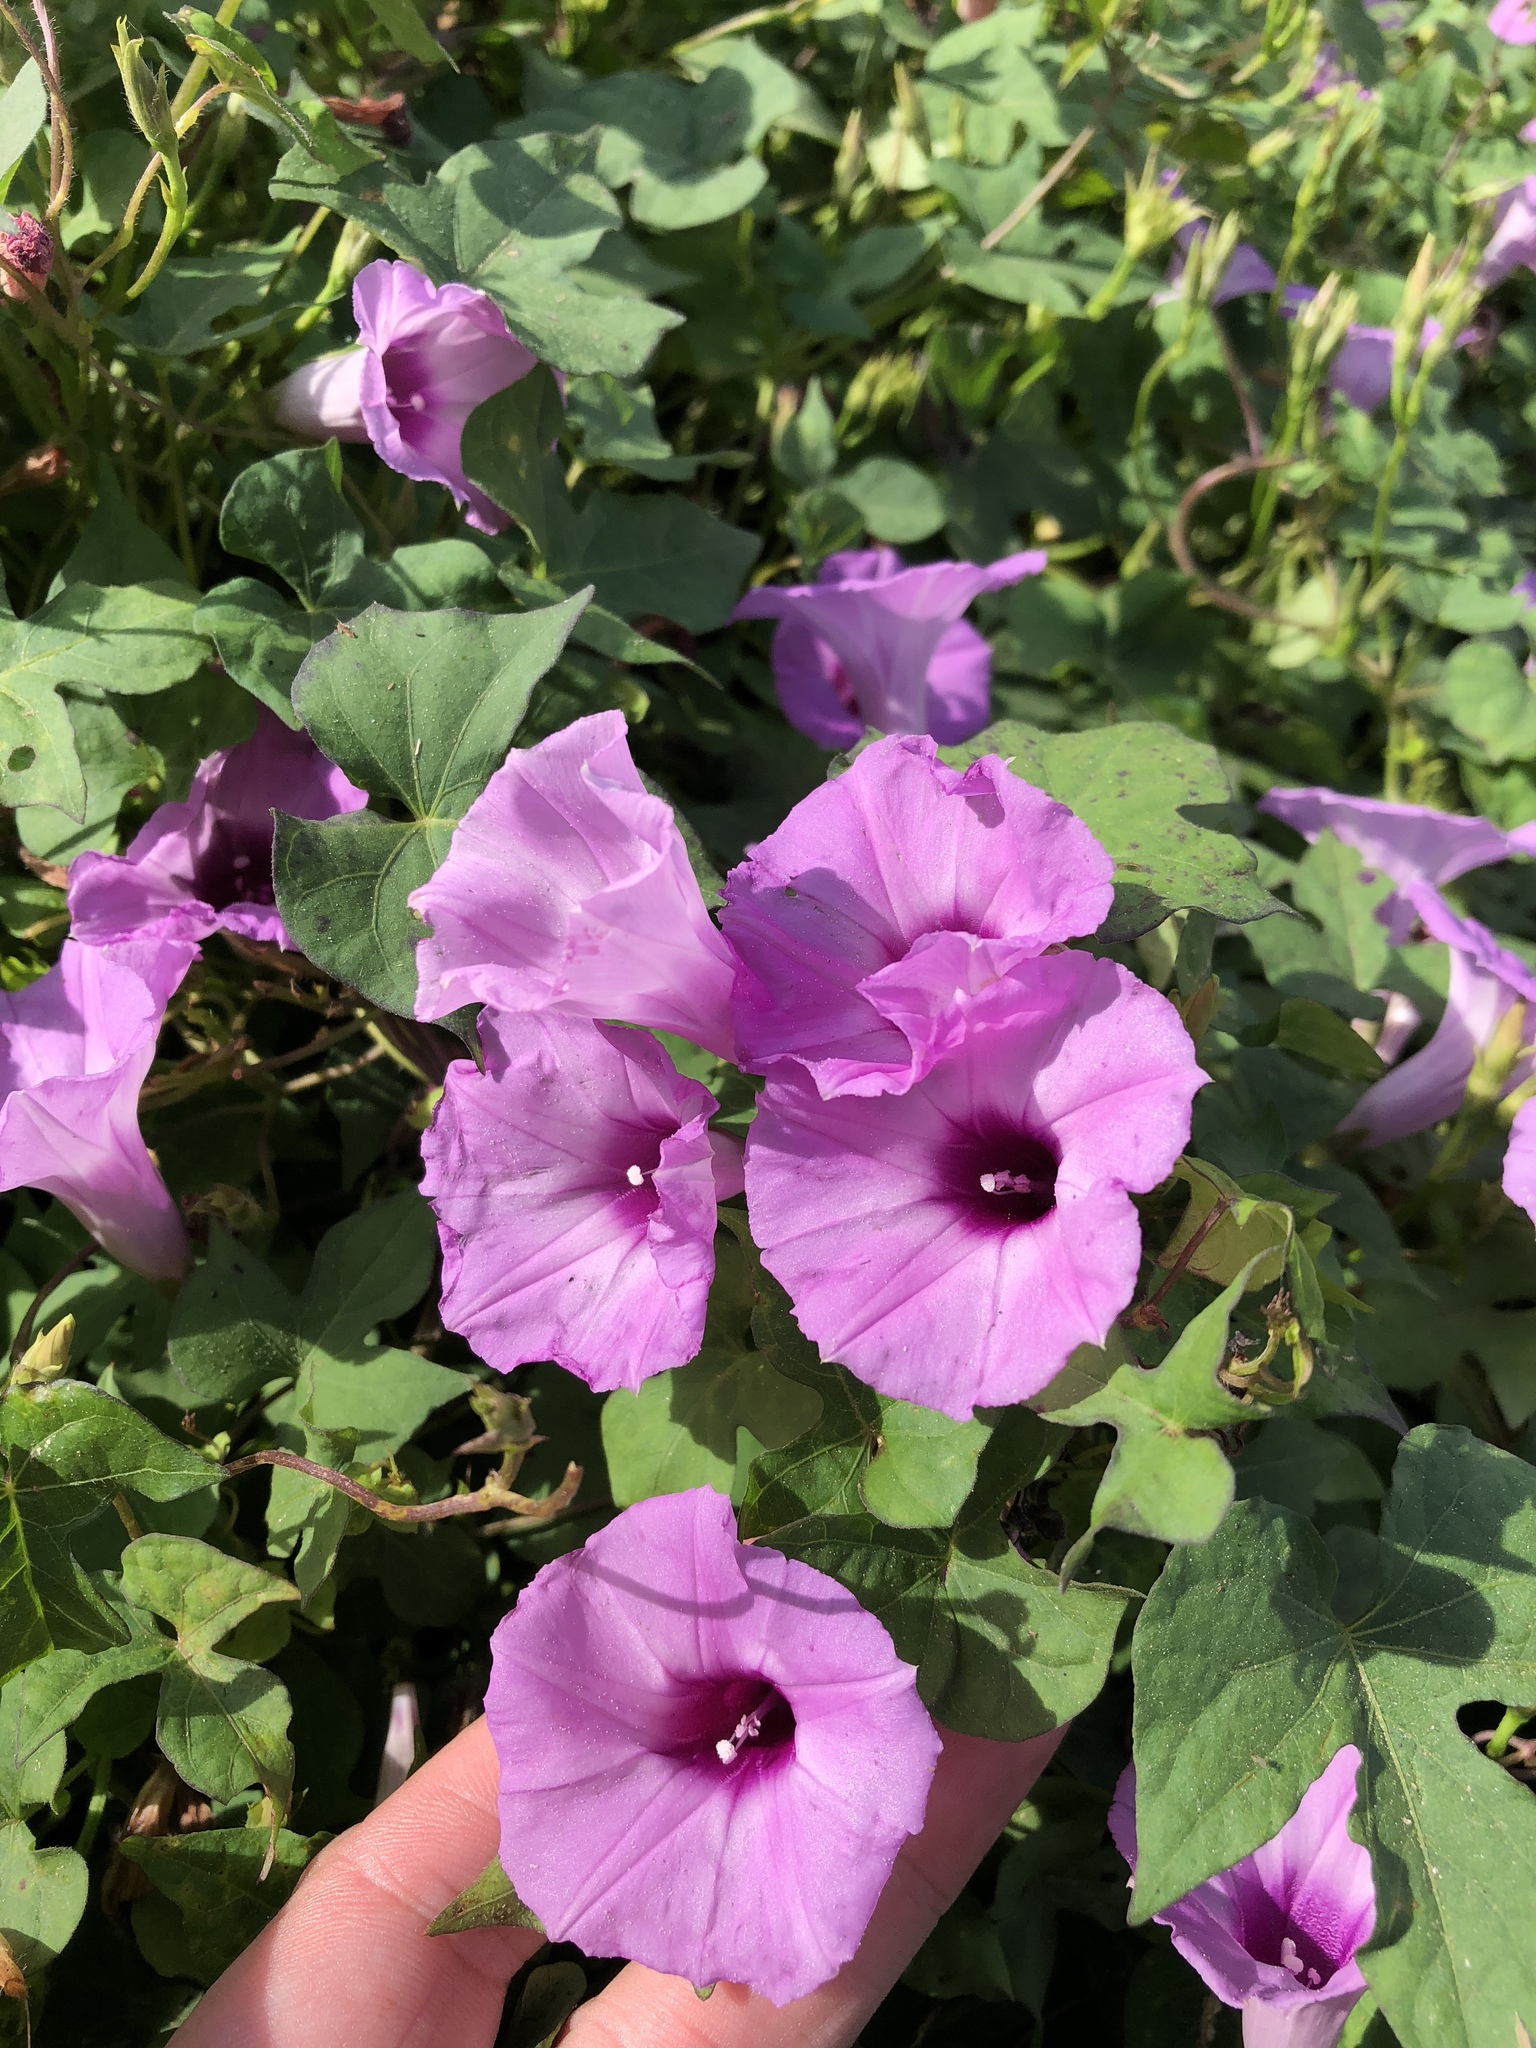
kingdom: Plantae
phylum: Tracheophyta
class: Magnoliopsida
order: Solanales
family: Convolvulaceae
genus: Ipomoea
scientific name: Ipomoea cordatotriloba
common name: Cotton morning glory
